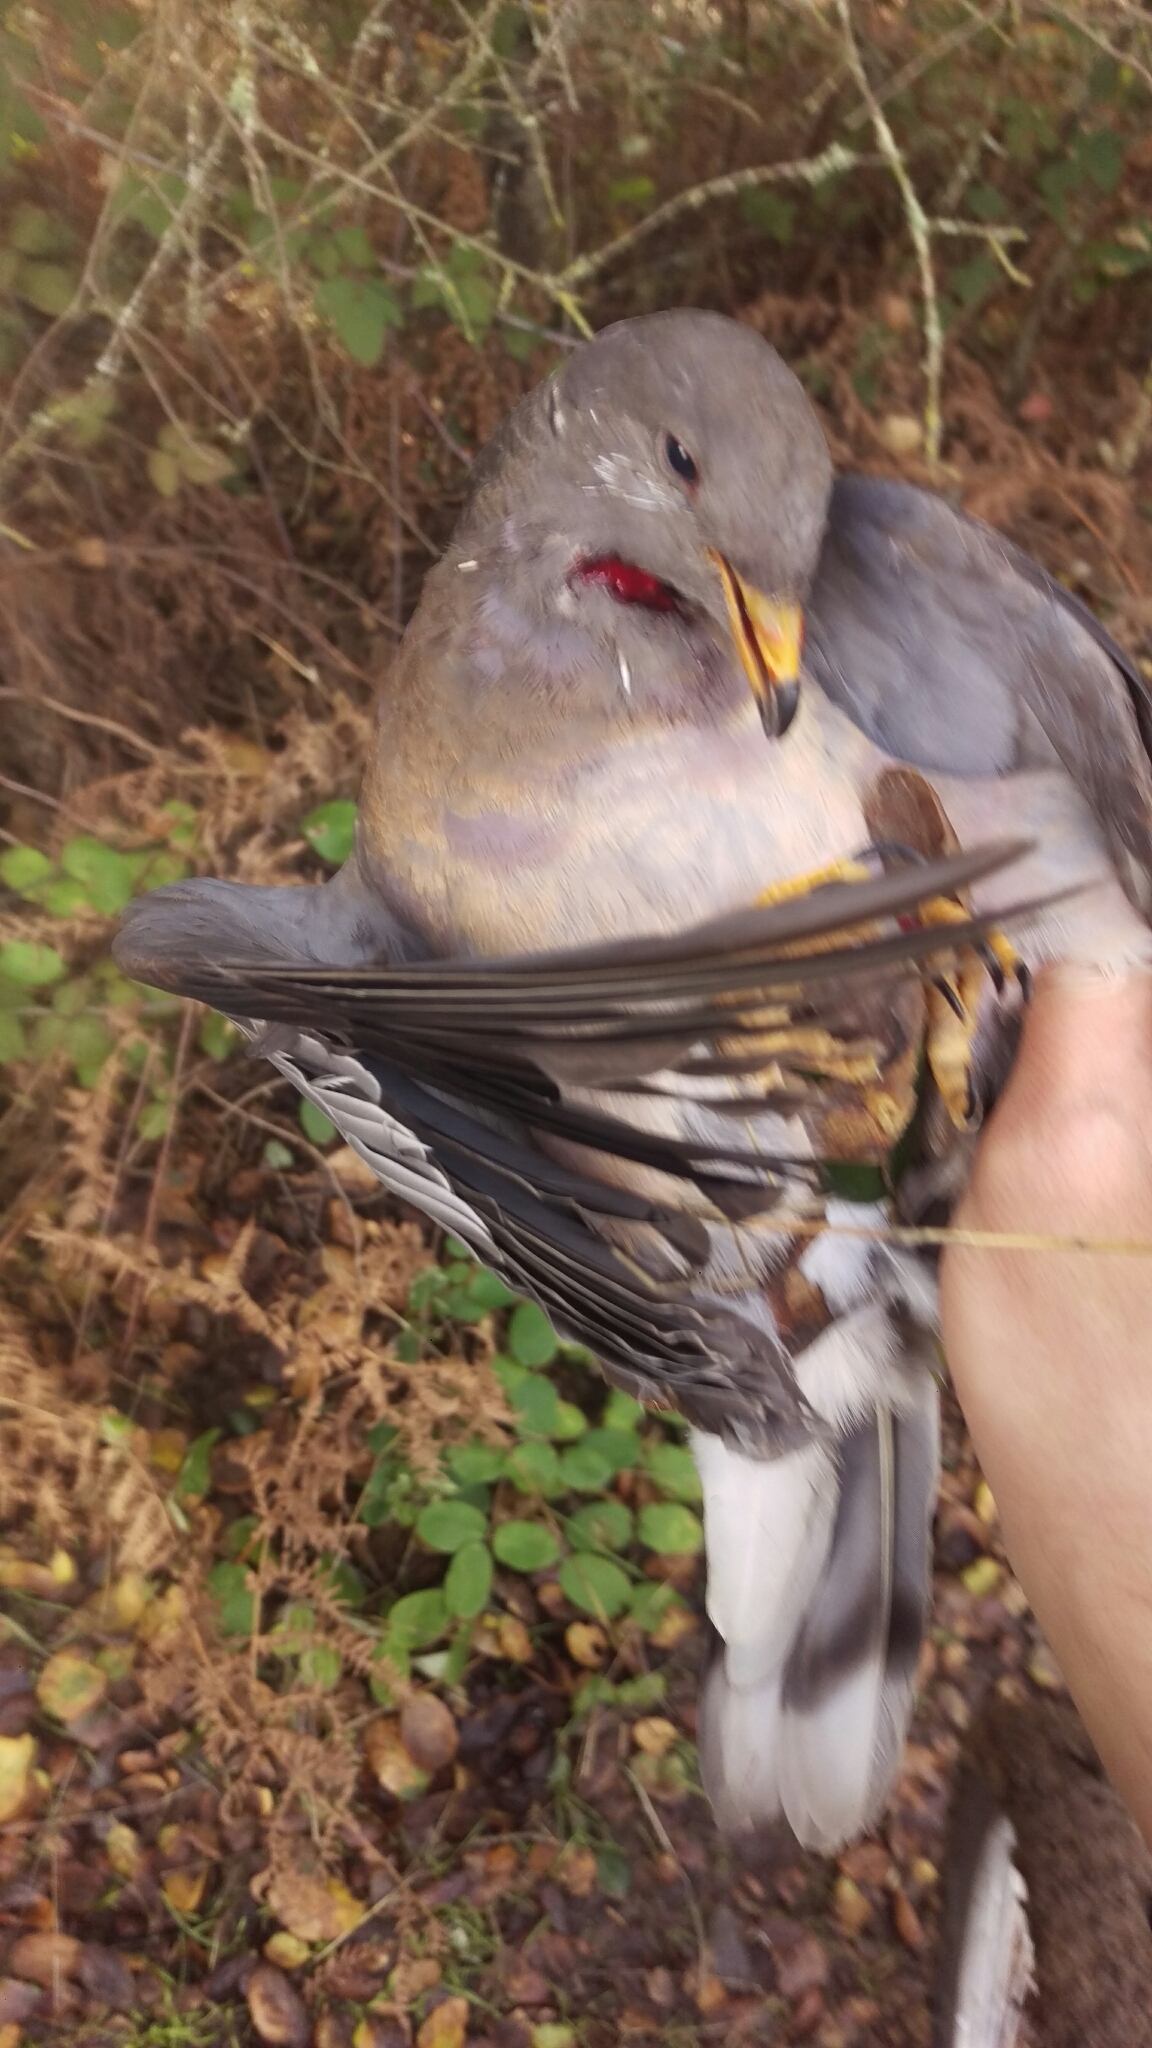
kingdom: Animalia
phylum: Chordata
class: Aves
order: Columbiformes
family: Columbidae
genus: Patagioenas
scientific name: Patagioenas fasciata
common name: Band-tailed pigeon
